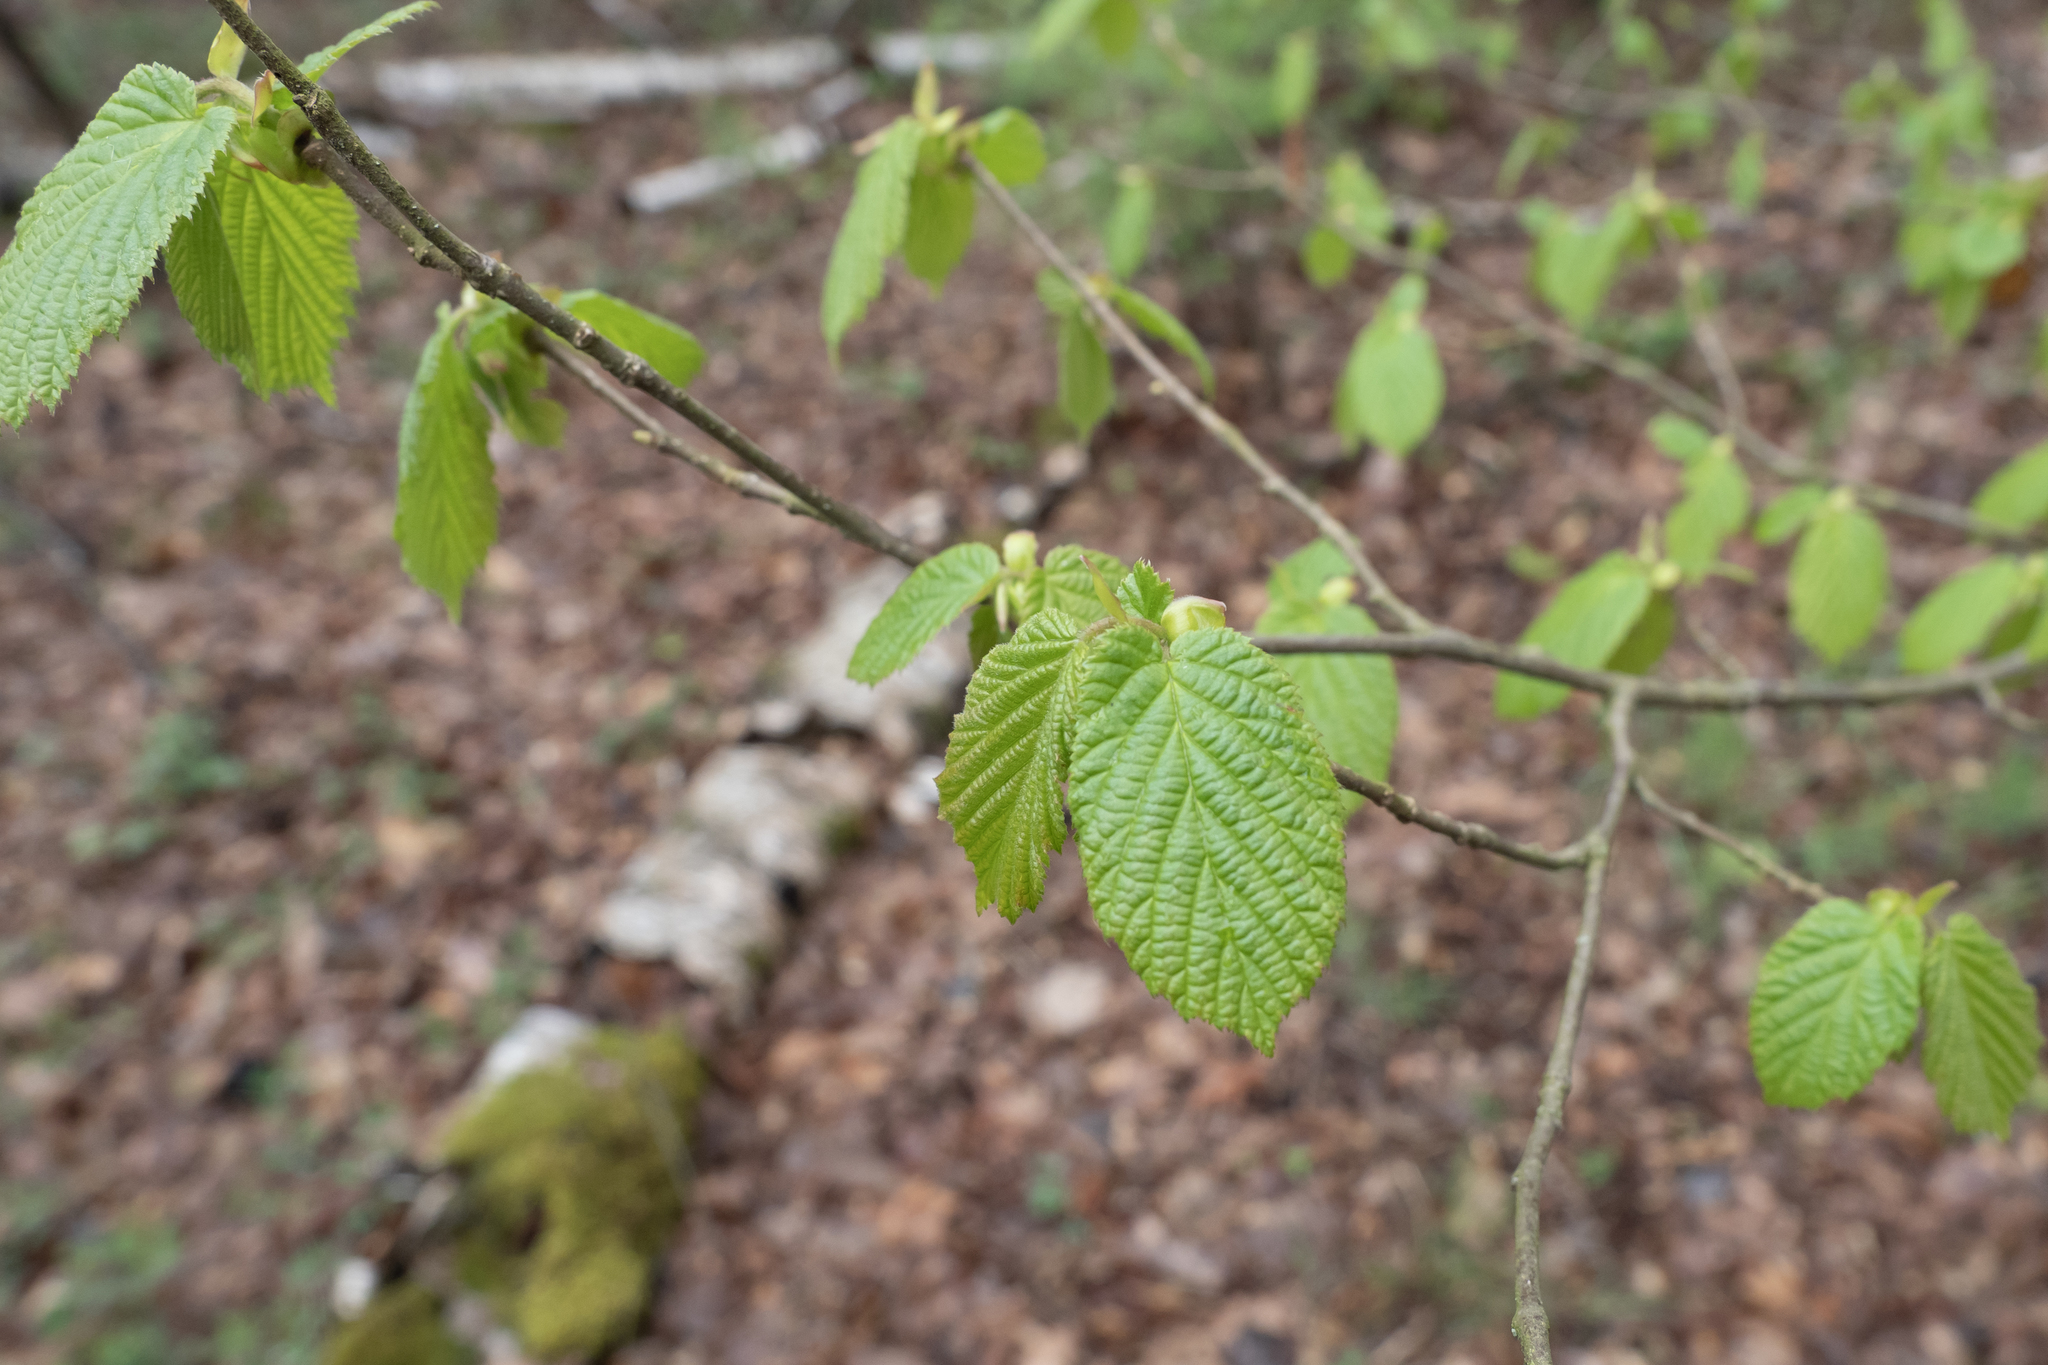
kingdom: Plantae
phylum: Tracheophyta
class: Magnoliopsida
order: Fagales
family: Betulaceae
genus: Corylus
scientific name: Corylus avellana
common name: European hazel
